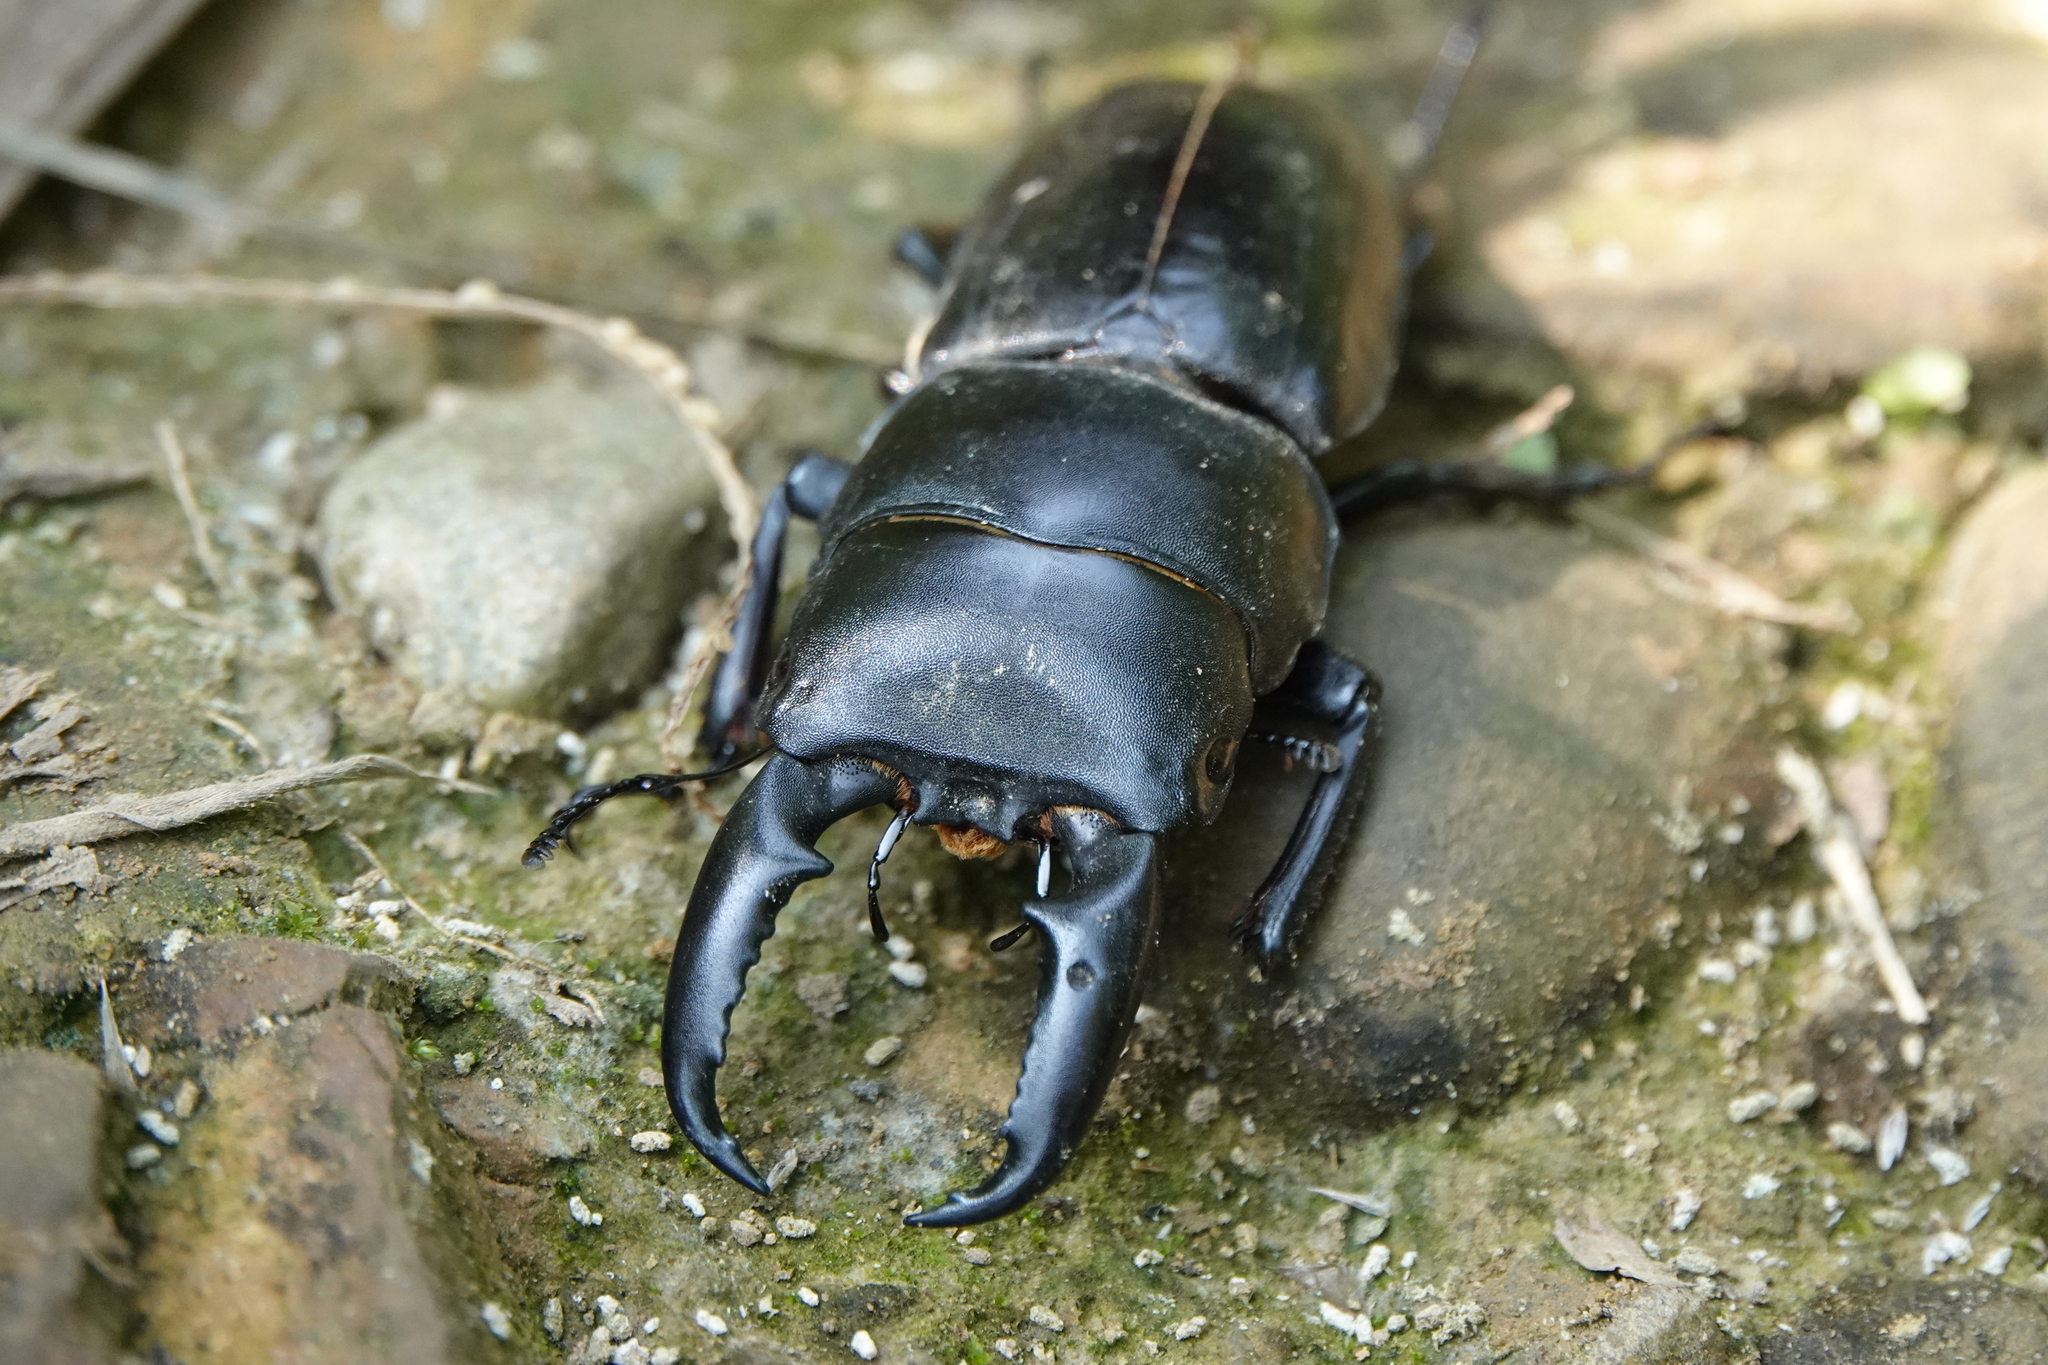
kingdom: Animalia
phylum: Arthropoda
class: Insecta
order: Coleoptera
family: Lucanidae
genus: Serrognathus
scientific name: Serrognathus titanus
